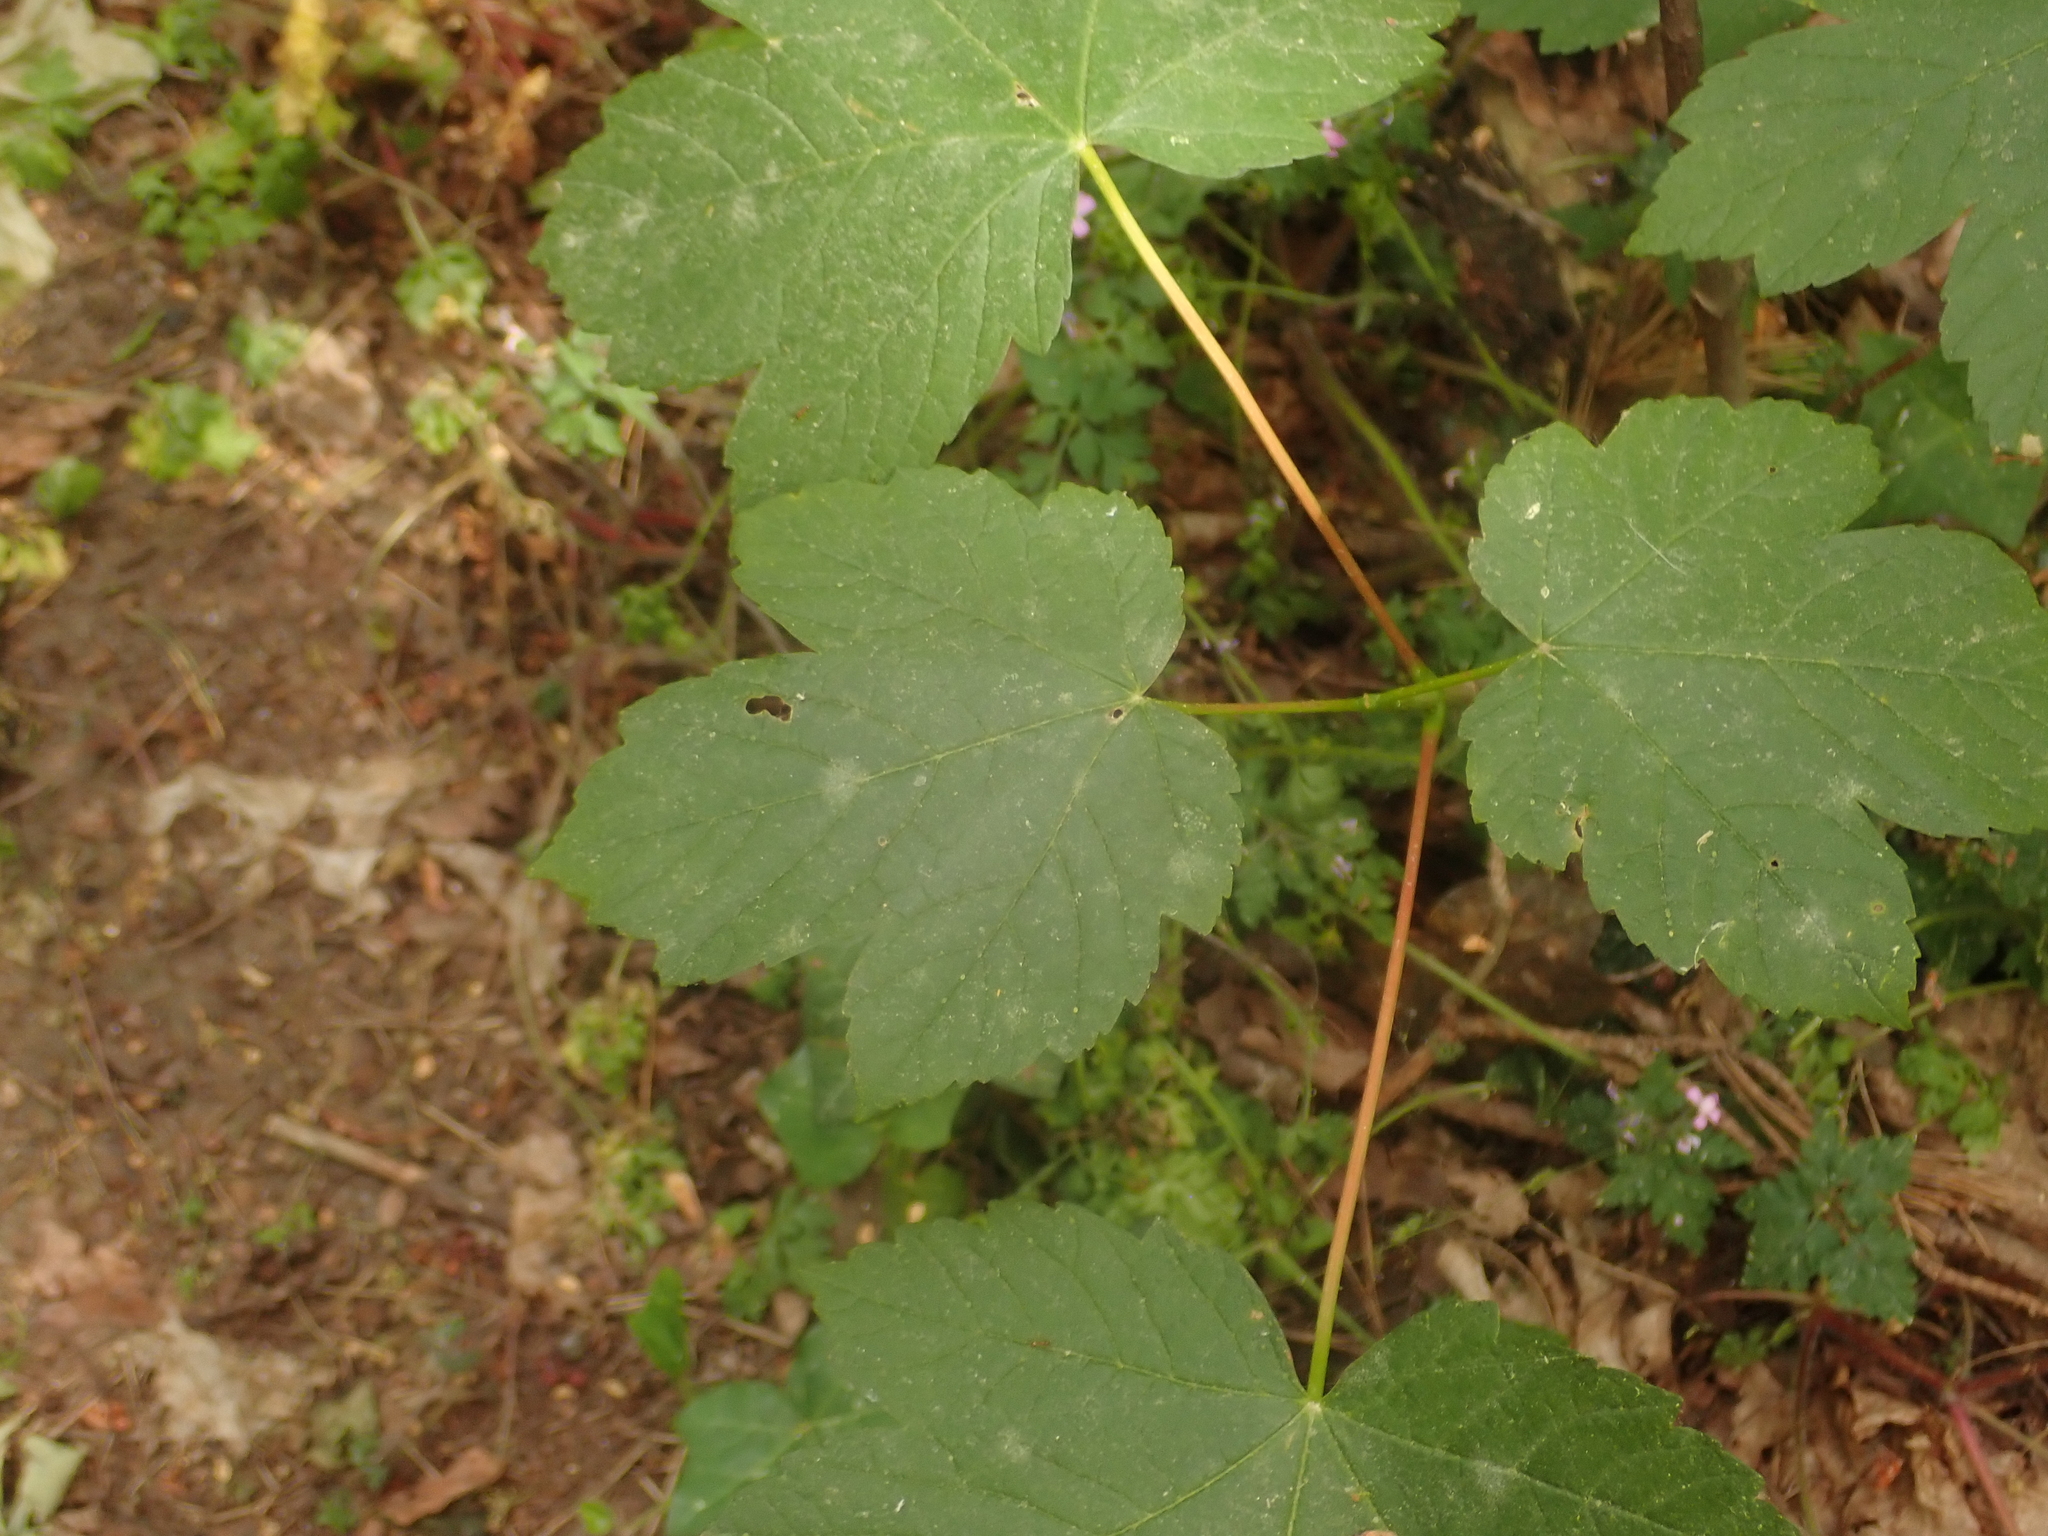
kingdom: Plantae
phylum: Tracheophyta
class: Magnoliopsida
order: Sapindales
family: Sapindaceae
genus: Acer
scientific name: Acer pseudoplatanus
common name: Sycamore
